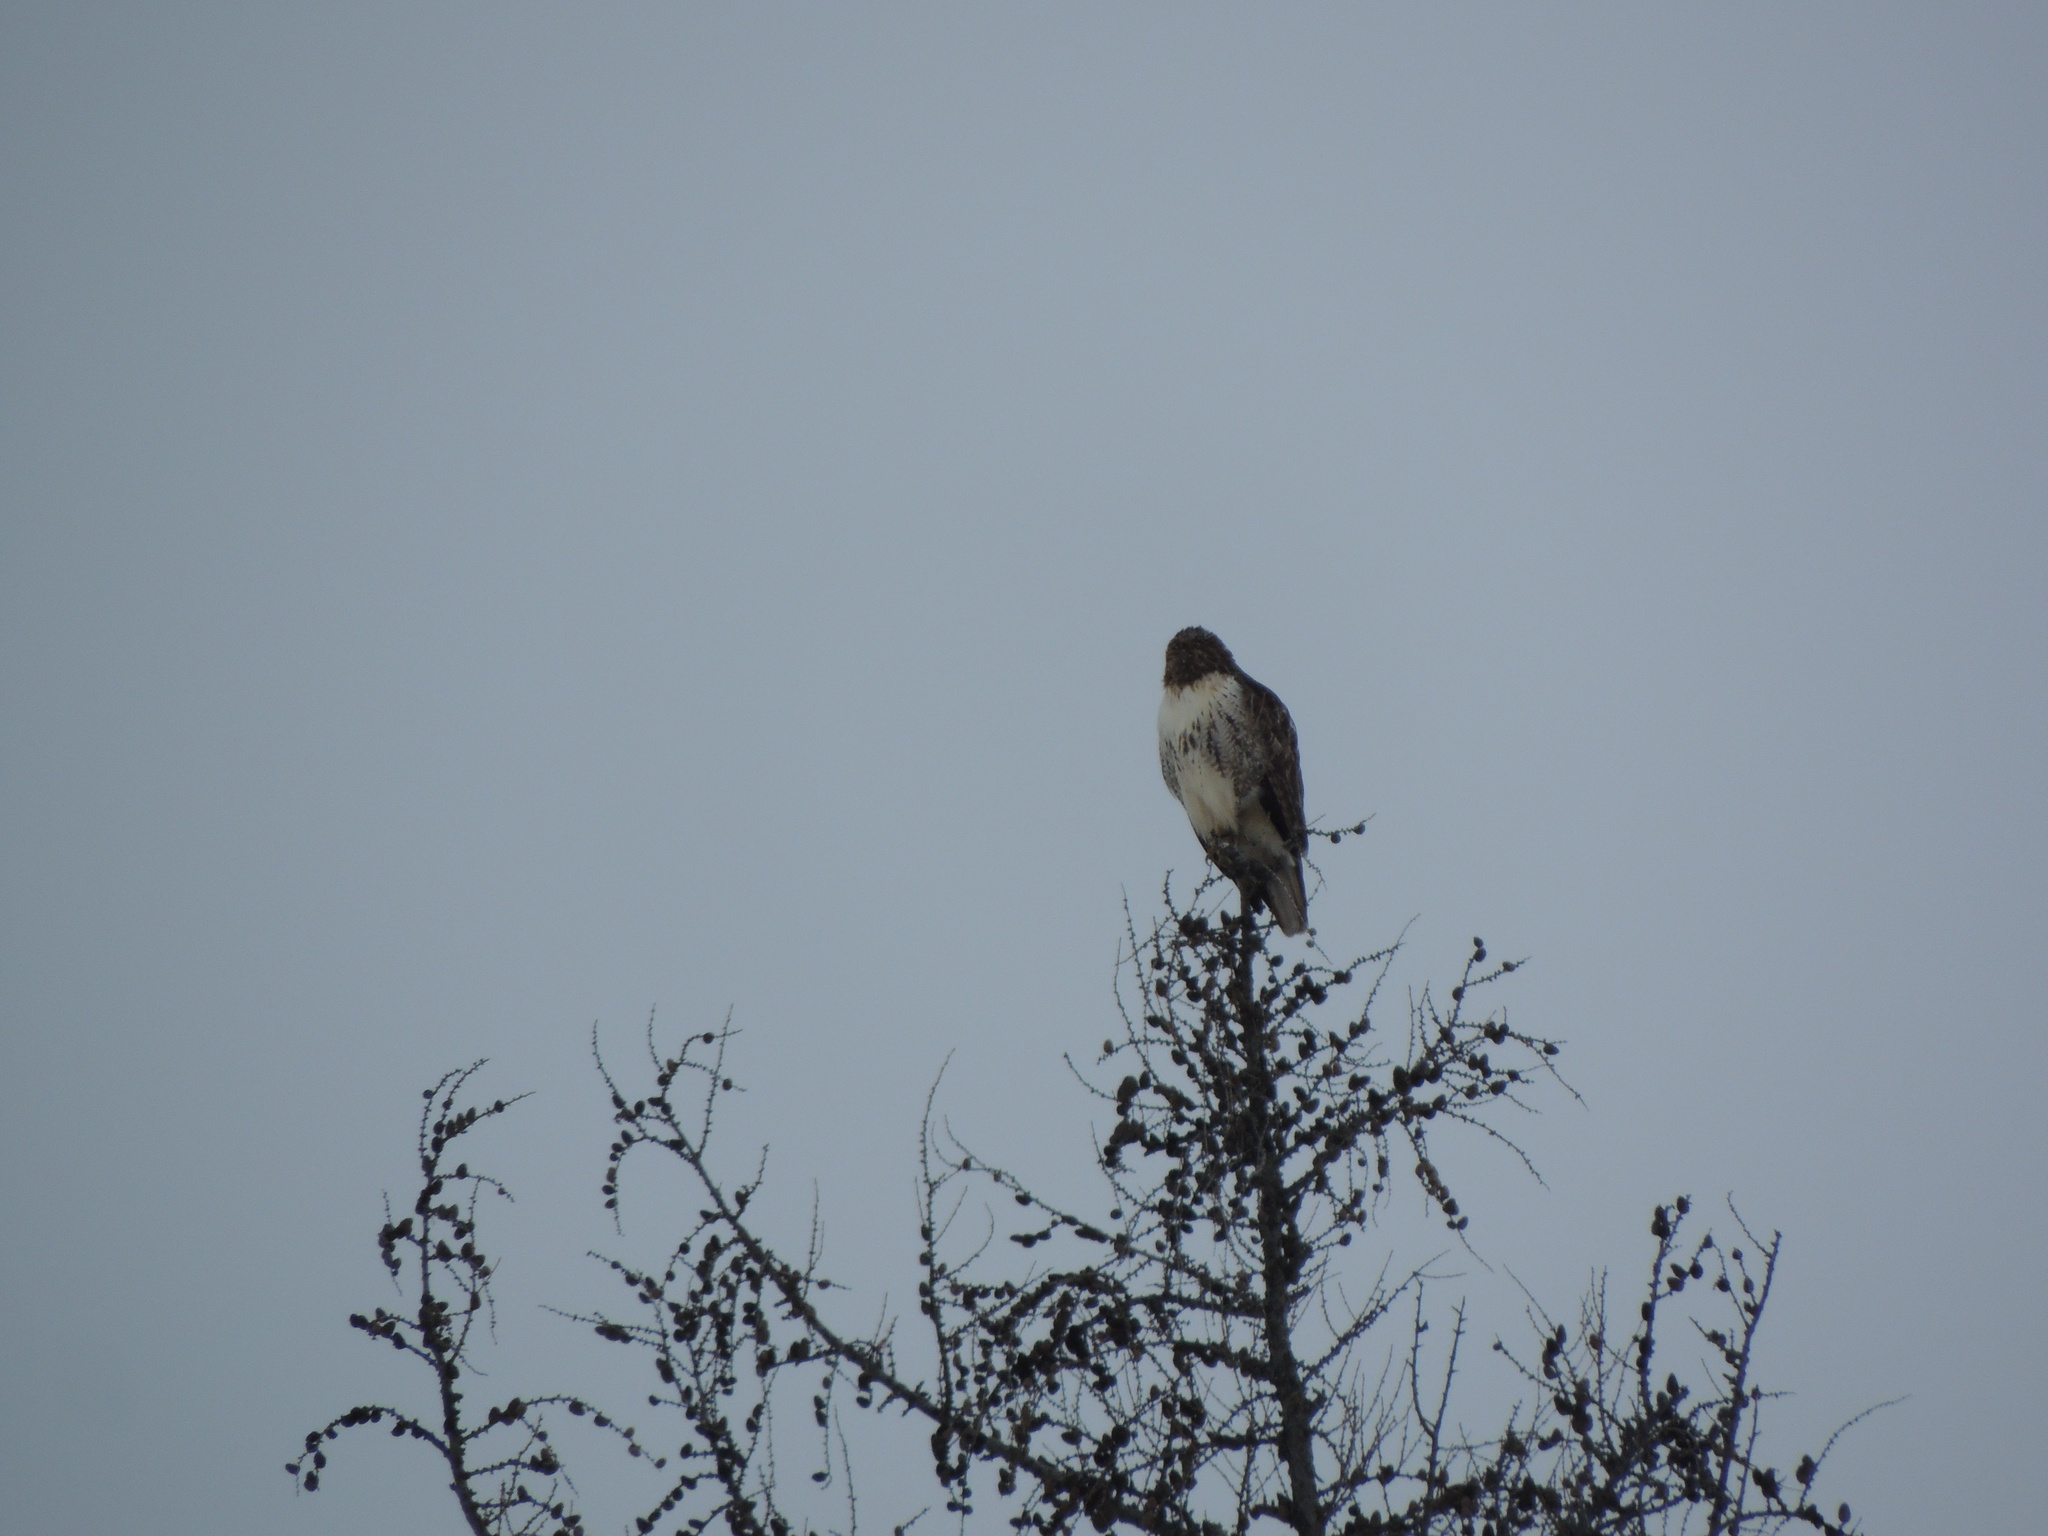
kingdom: Animalia
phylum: Chordata
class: Aves
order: Accipitriformes
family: Accipitridae
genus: Buteo
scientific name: Buteo jamaicensis
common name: Red-tailed hawk
